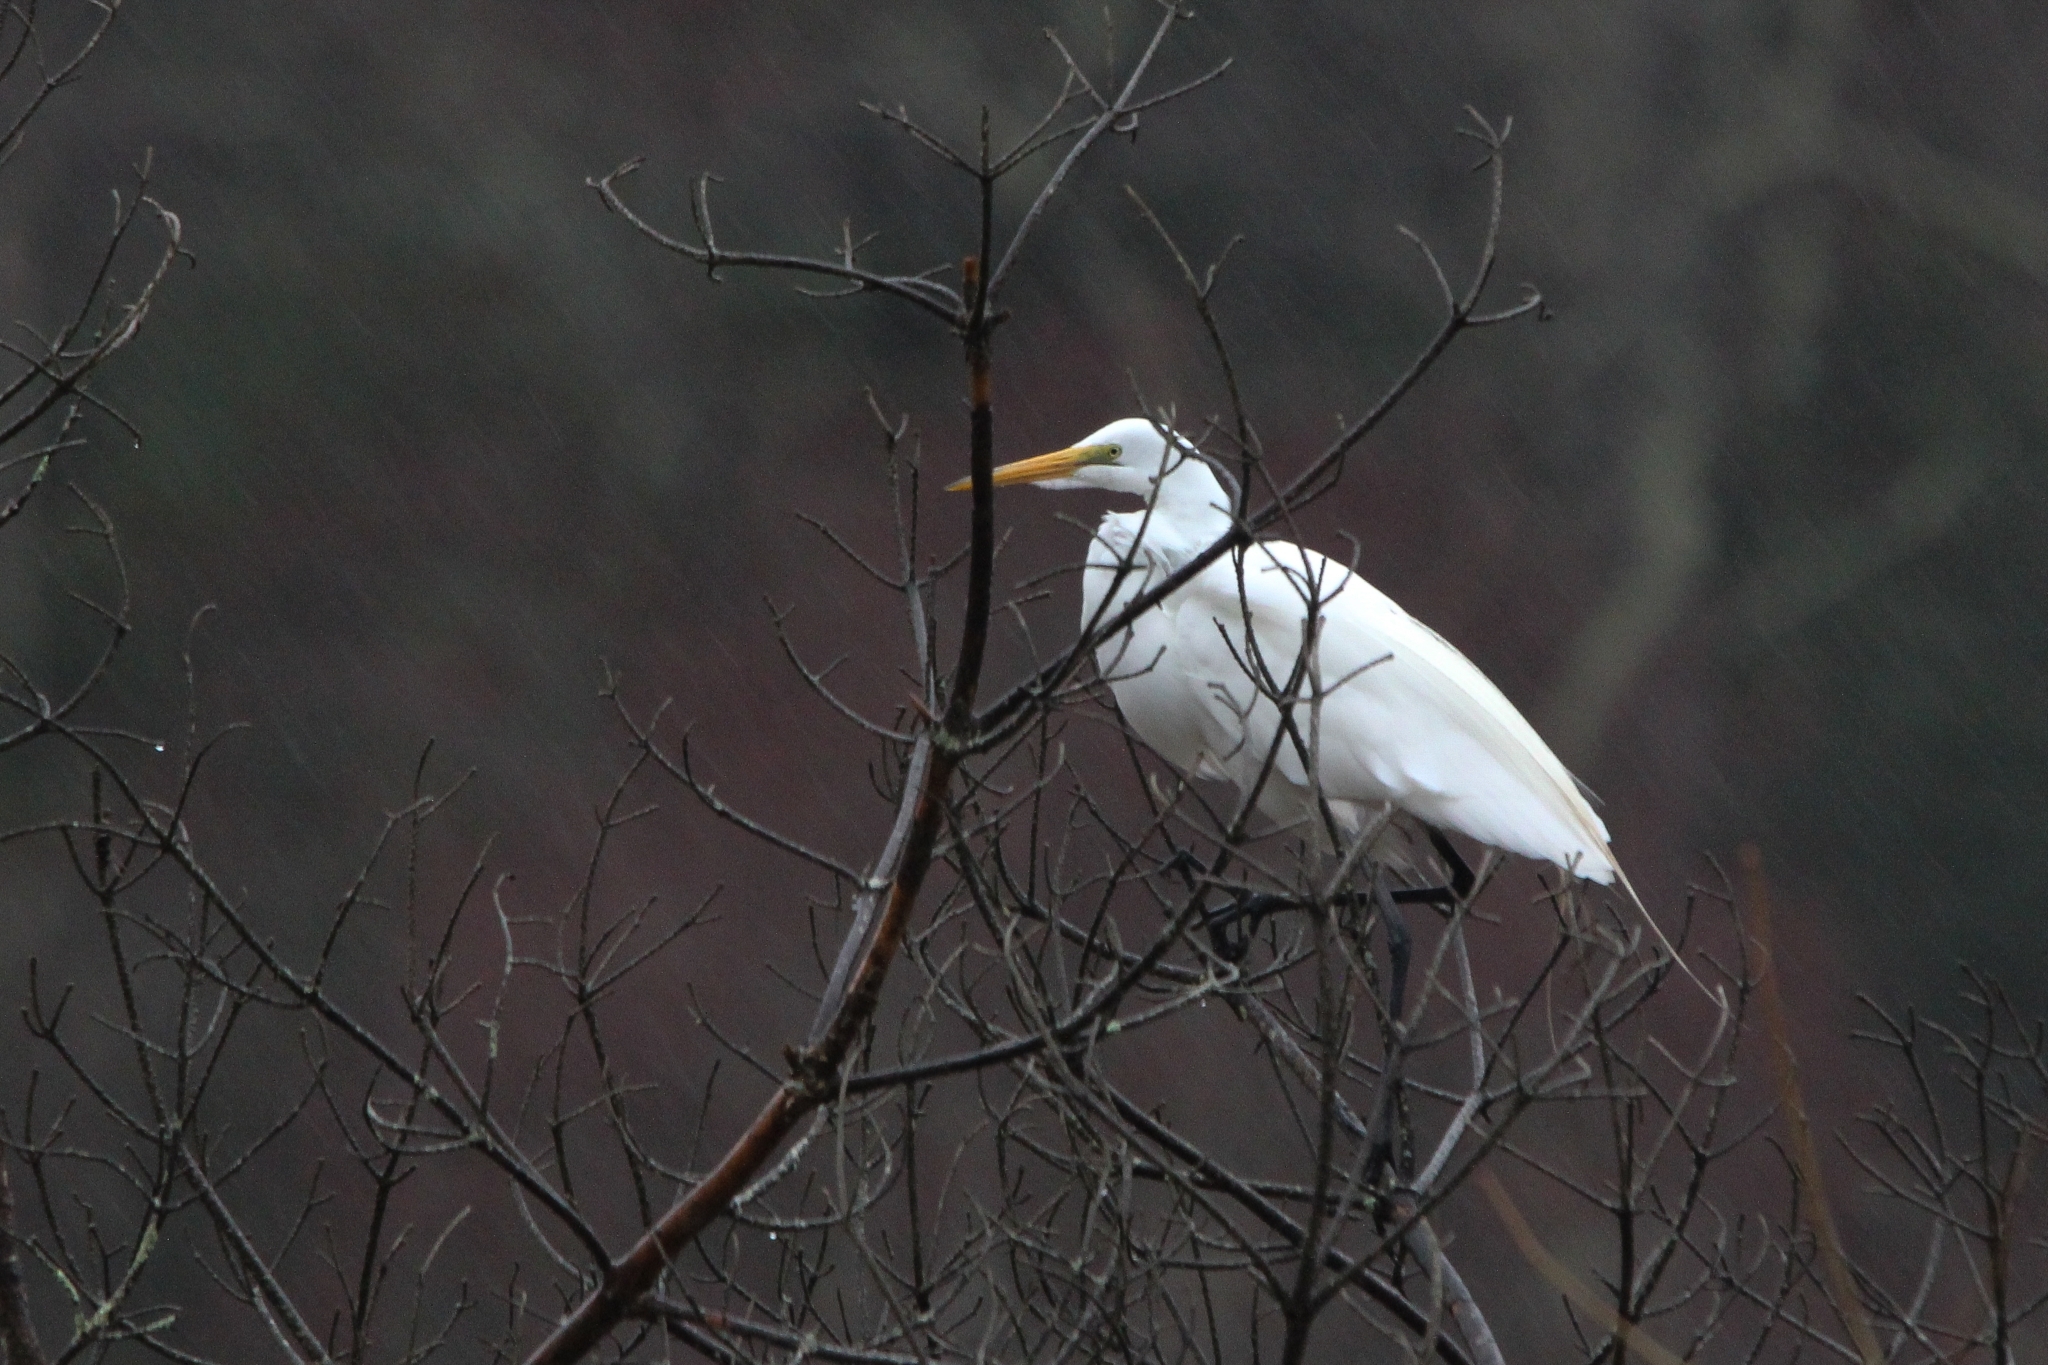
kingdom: Animalia
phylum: Chordata
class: Aves
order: Pelecaniformes
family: Ardeidae
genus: Ardea
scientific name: Ardea alba
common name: Great egret
